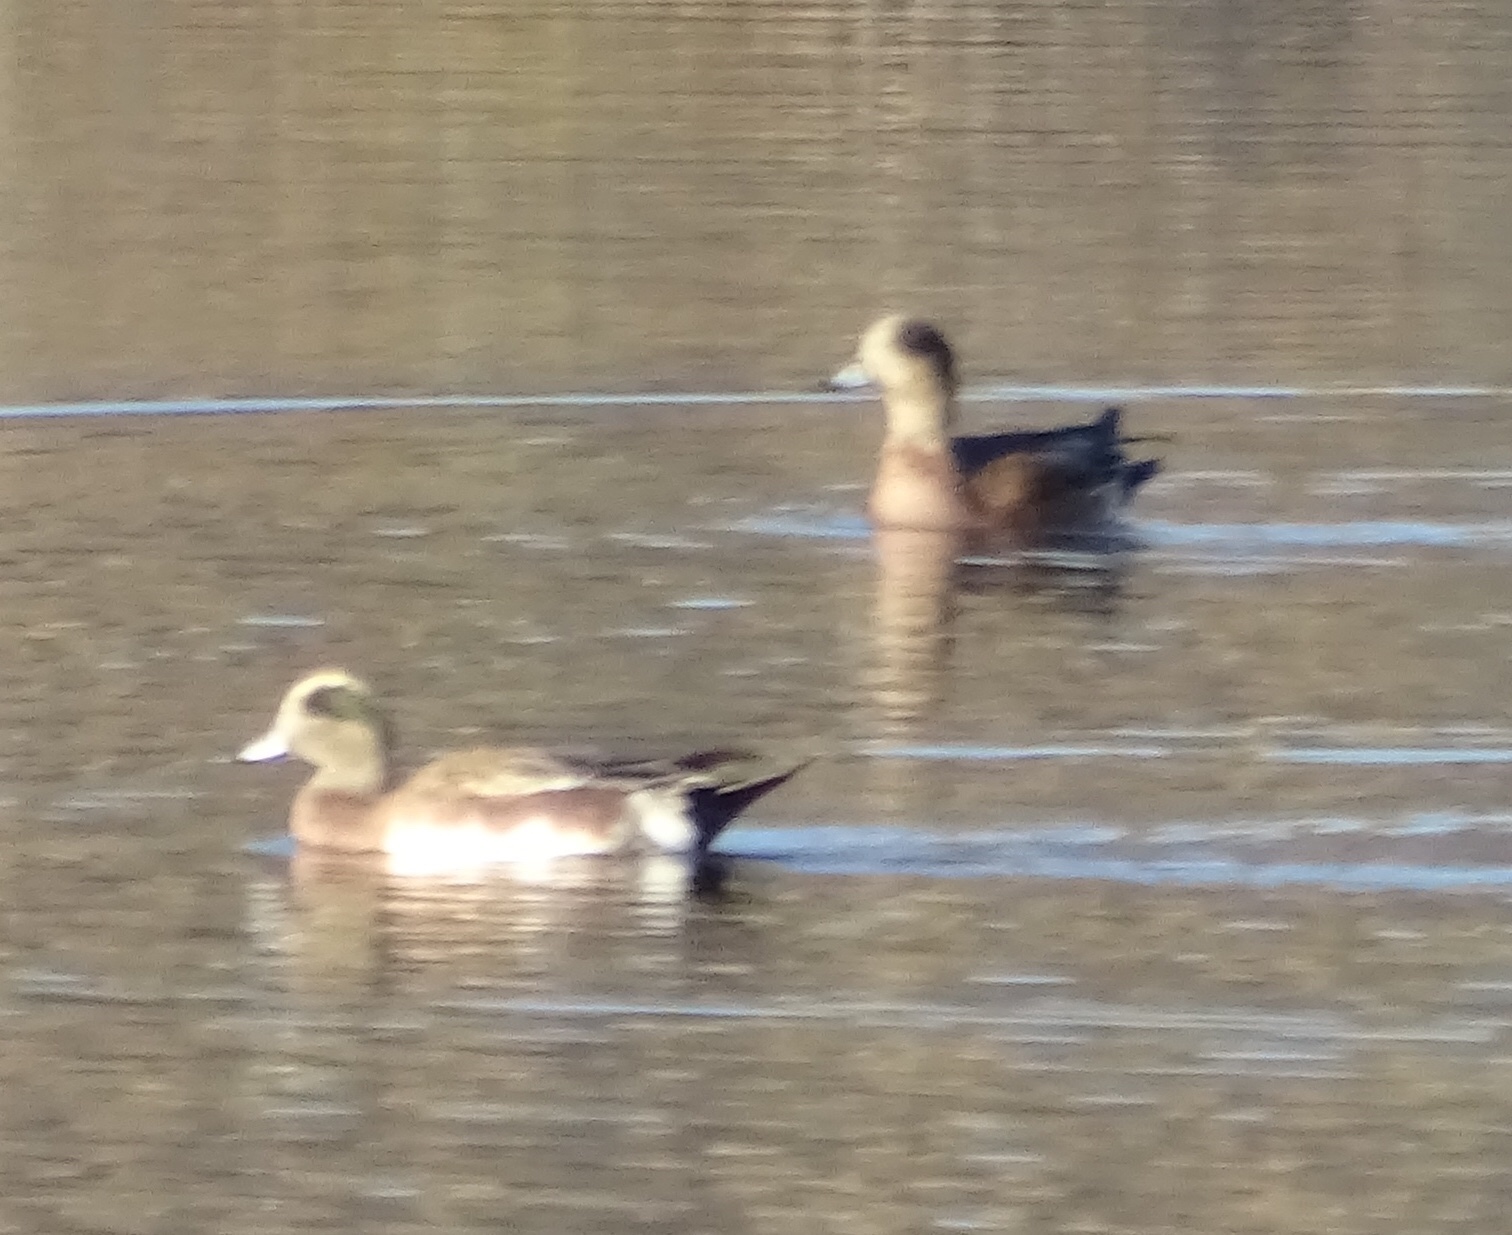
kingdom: Animalia
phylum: Chordata
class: Aves
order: Anseriformes
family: Anatidae
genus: Mareca
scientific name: Mareca americana
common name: American wigeon
